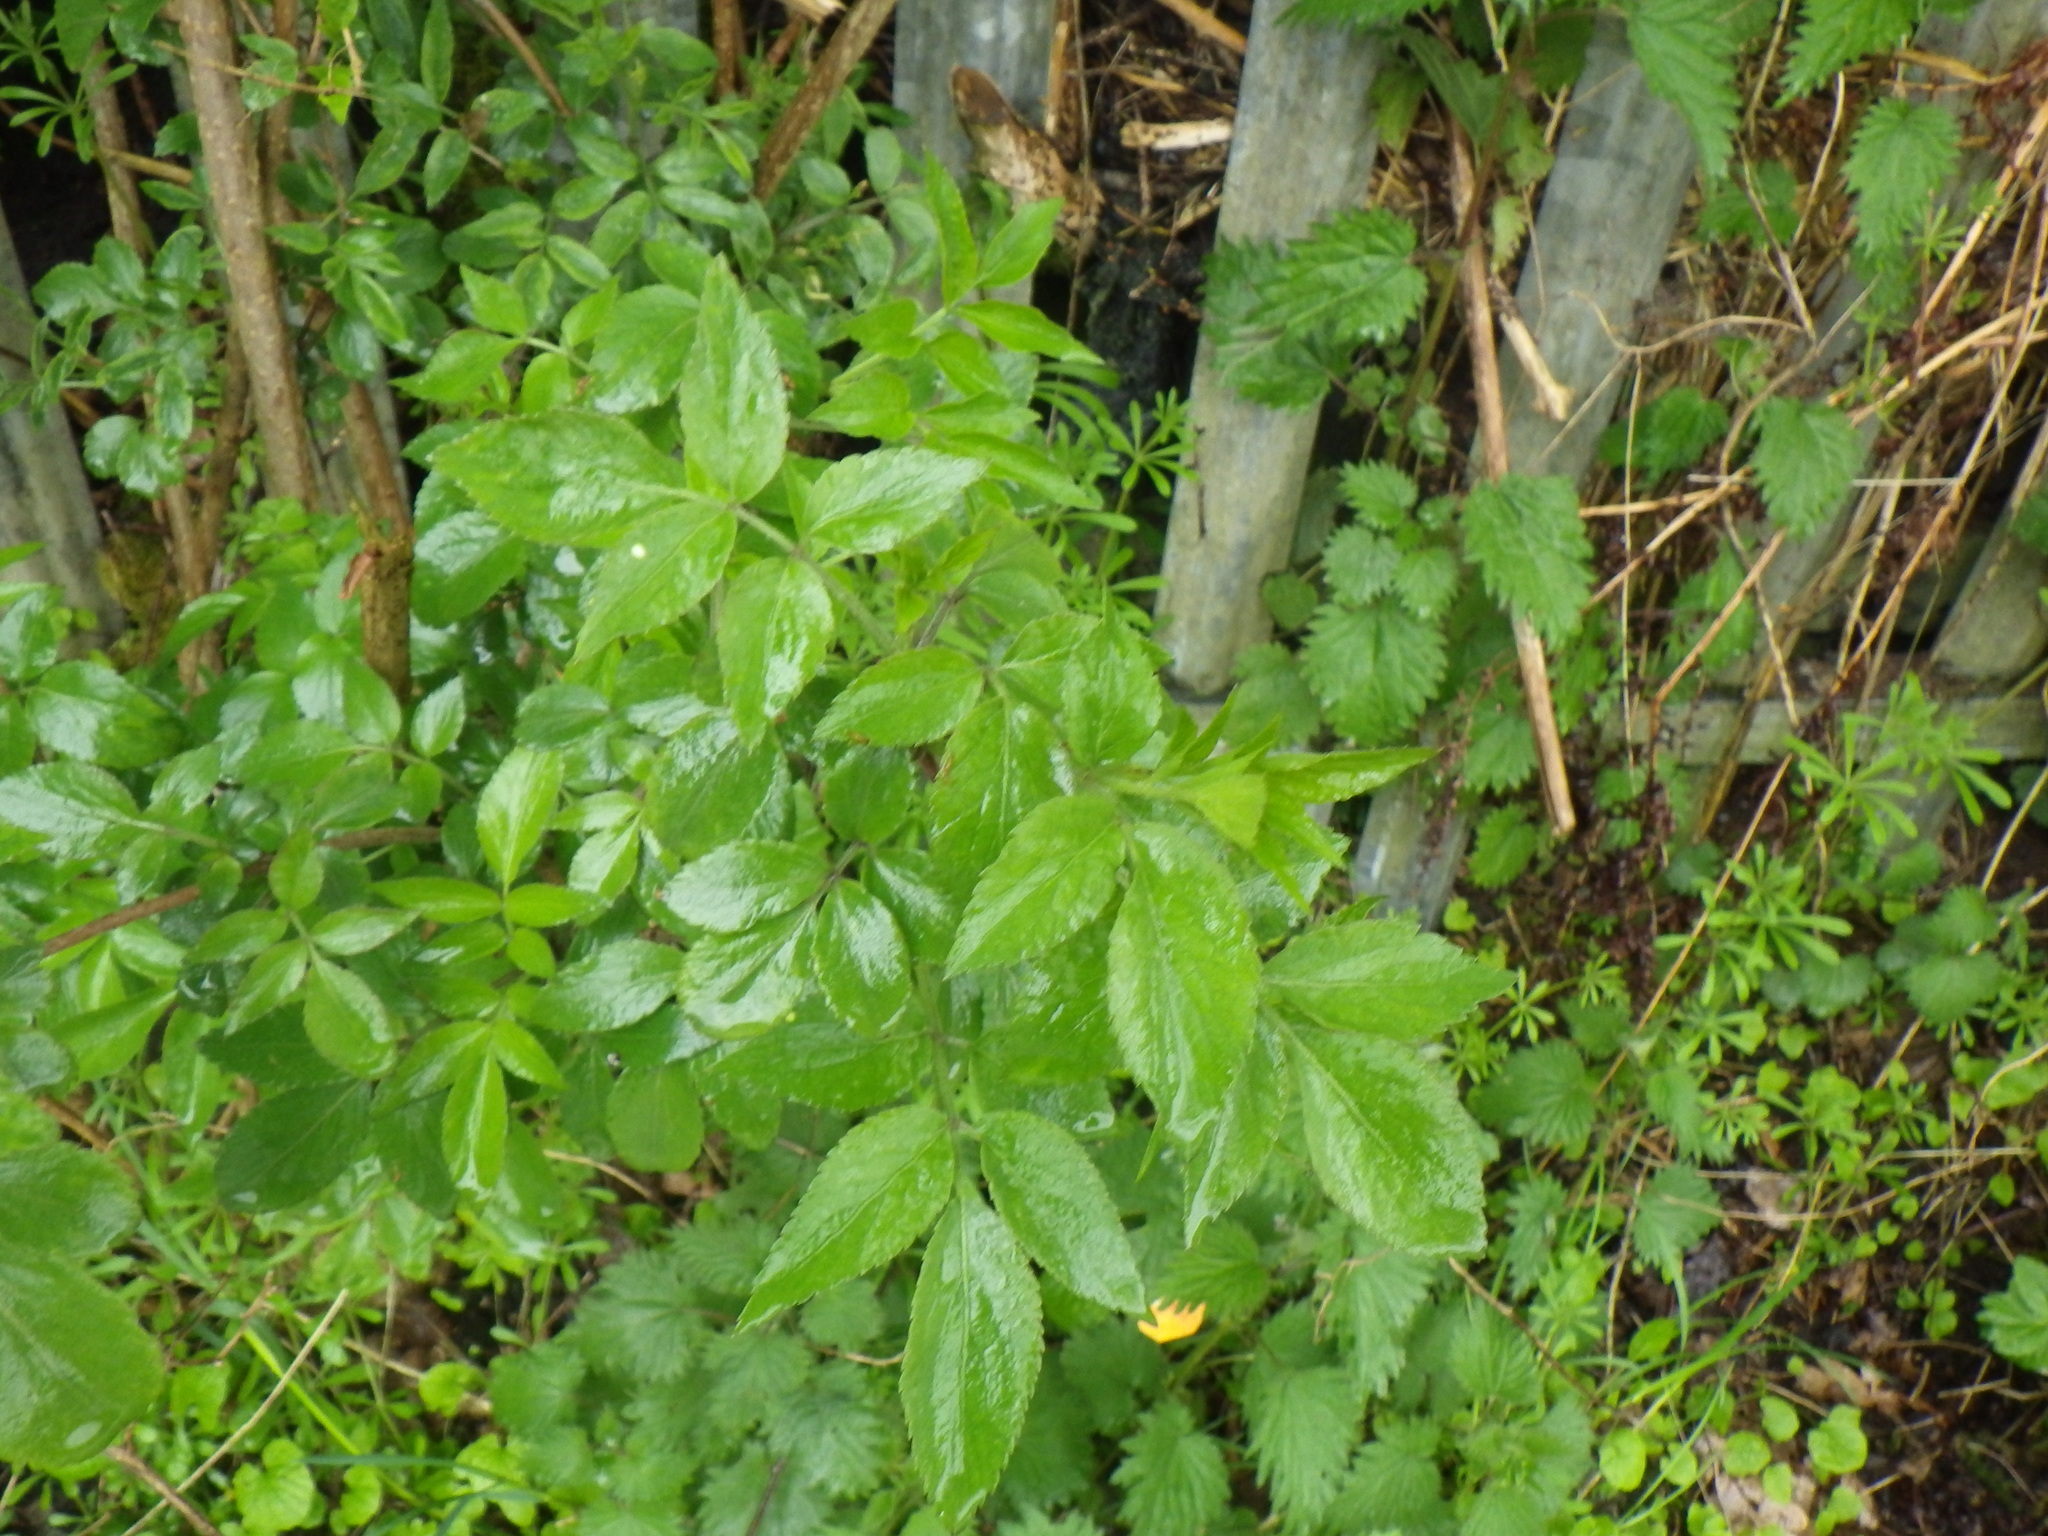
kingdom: Plantae
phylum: Tracheophyta
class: Magnoliopsida
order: Dipsacales
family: Viburnaceae
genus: Sambucus
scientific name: Sambucus nigra
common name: Elder
